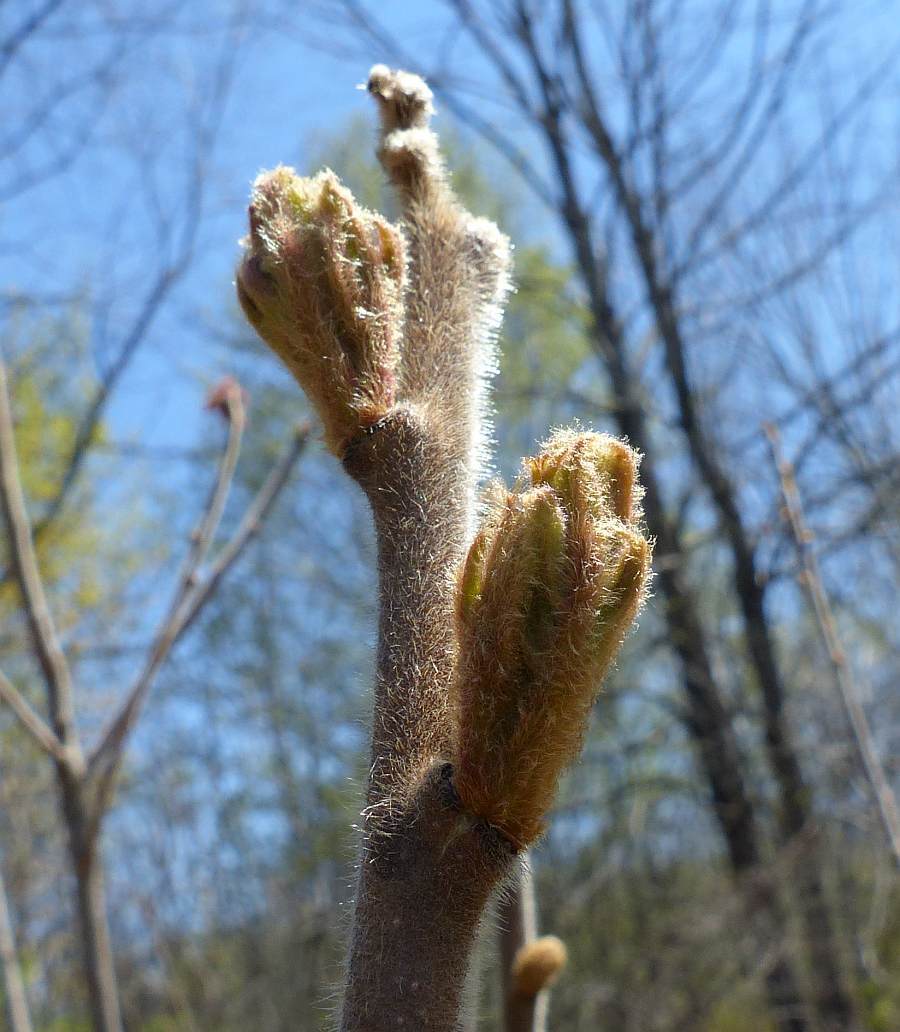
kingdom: Plantae
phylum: Tracheophyta
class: Magnoliopsida
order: Sapindales
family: Anacardiaceae
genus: Rhus
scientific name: Rhus typhina
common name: Staghorn sumac
